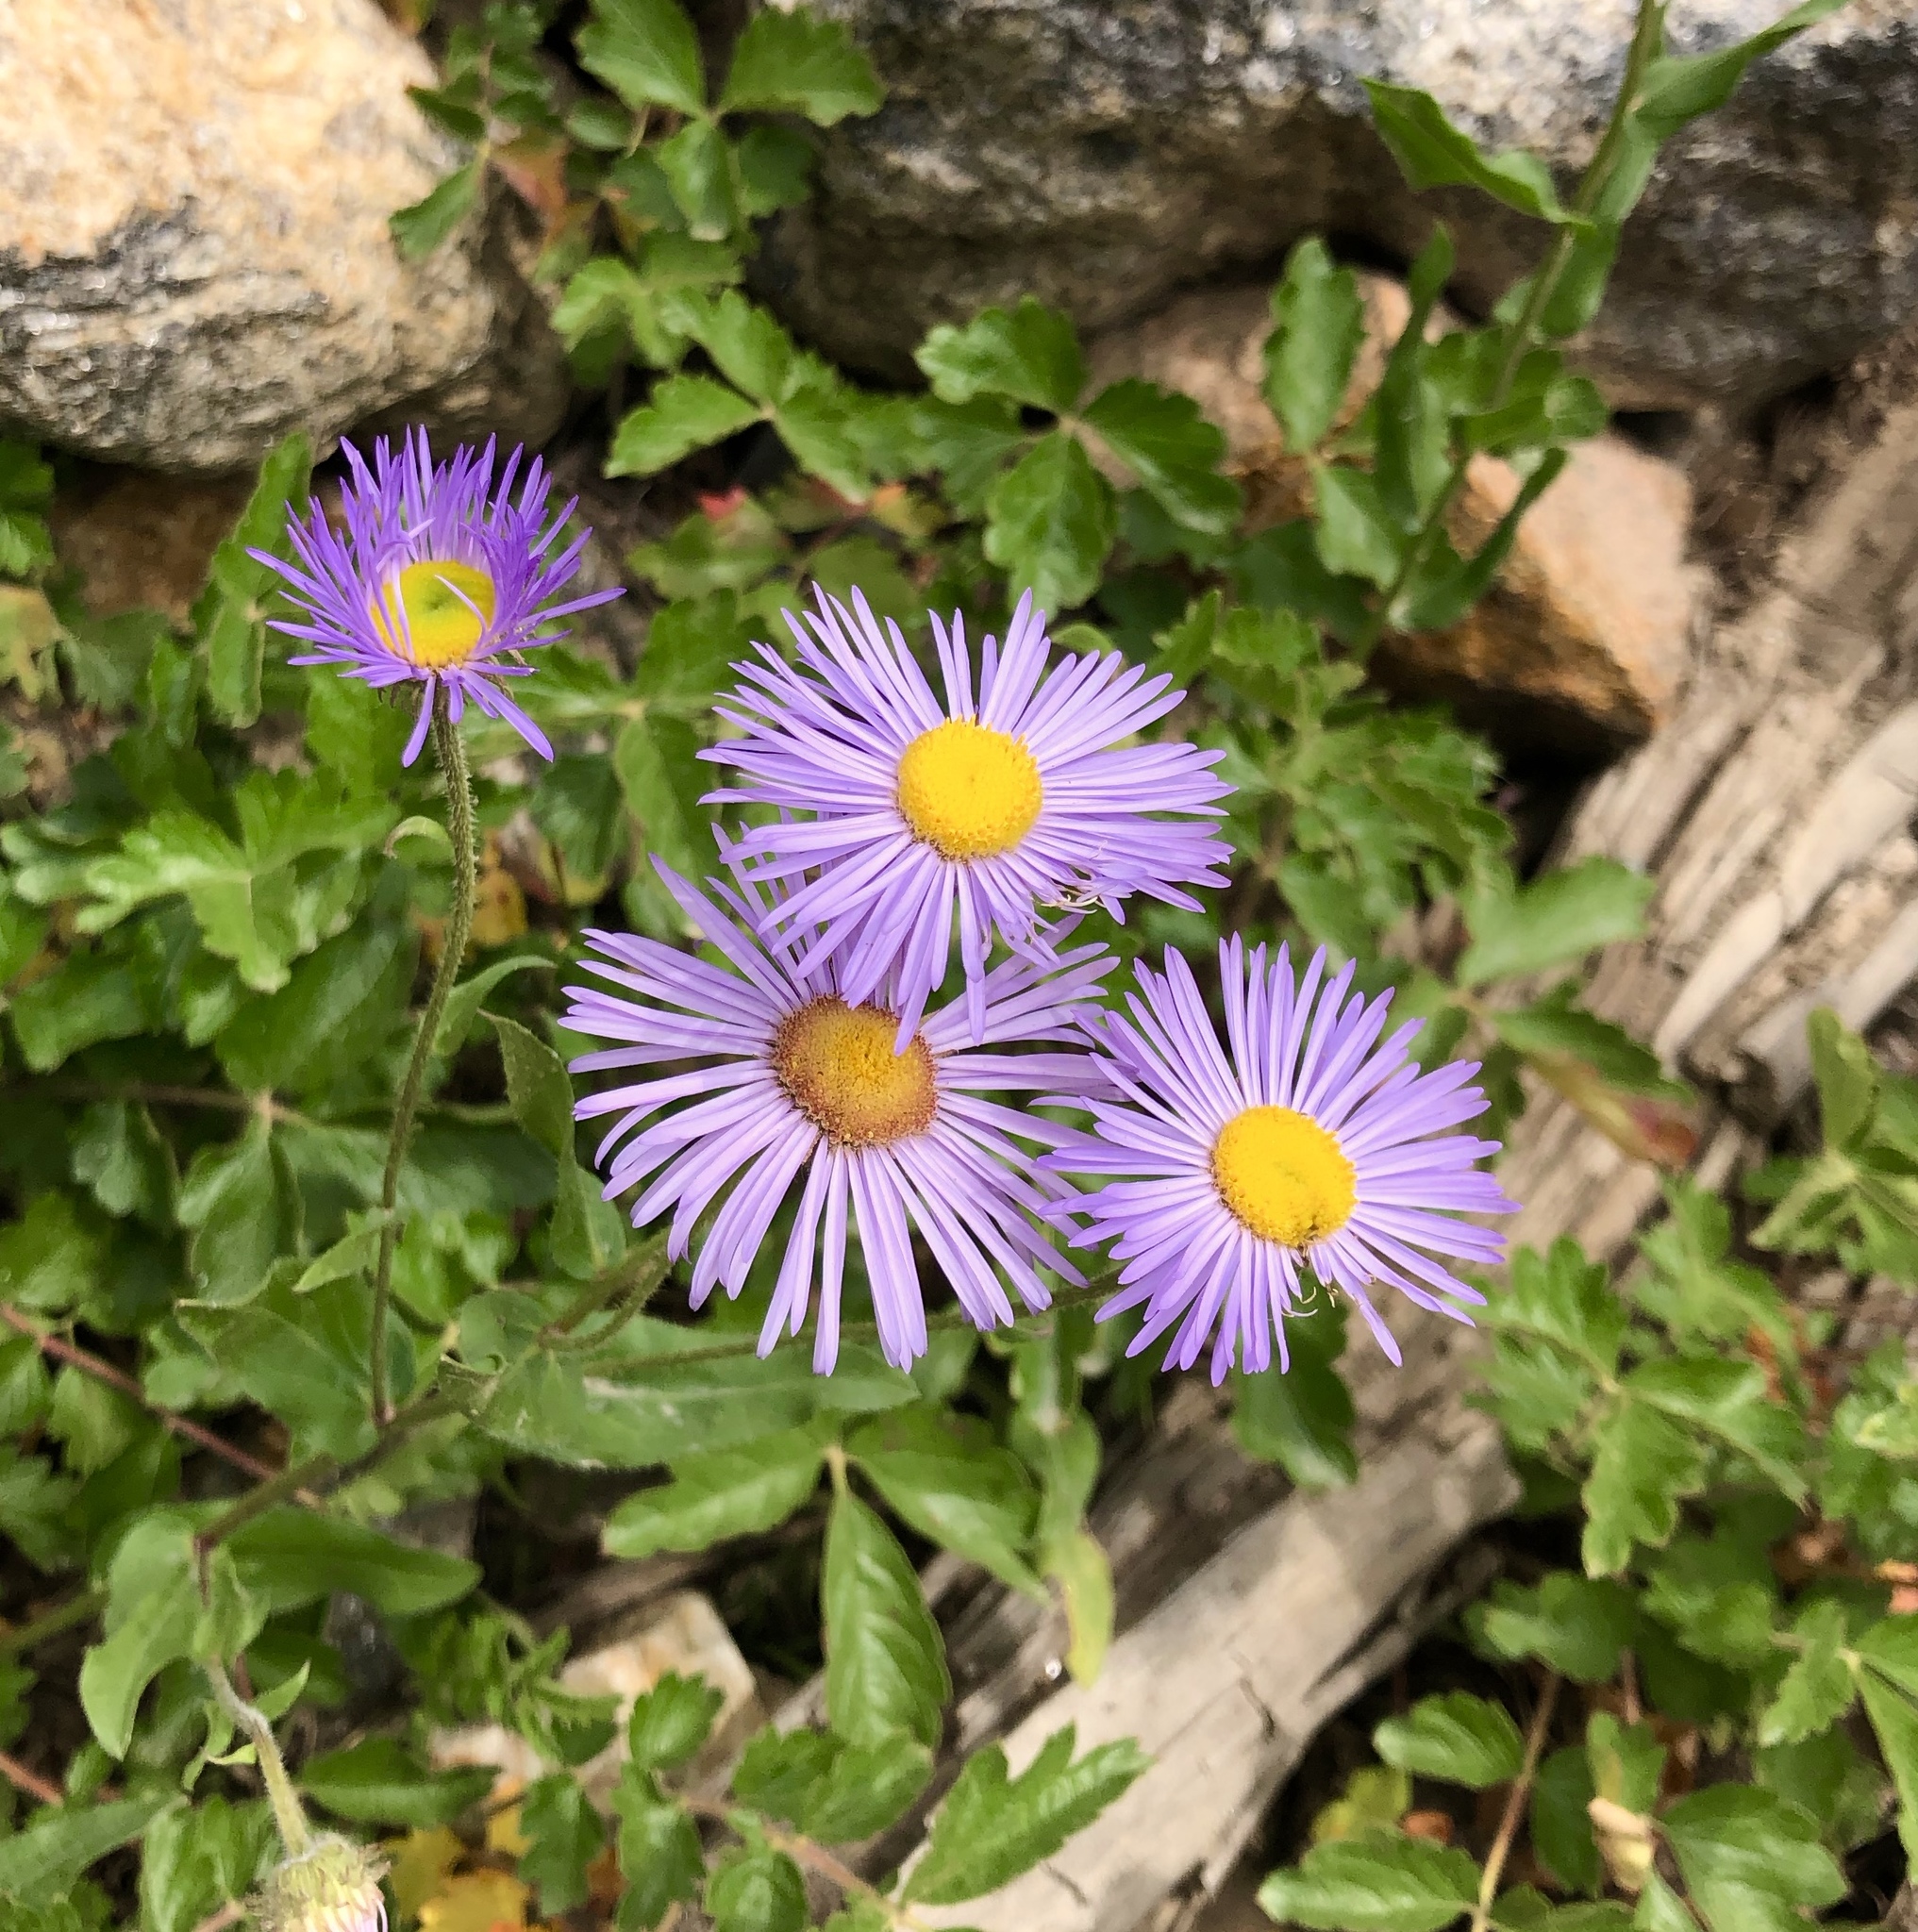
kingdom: Plantae
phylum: Tracheophyta
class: Magnoliopsida
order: Asterales
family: Asteraceae
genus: Erigeron
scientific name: Erigeron speciosus
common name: Aspen fleabane
